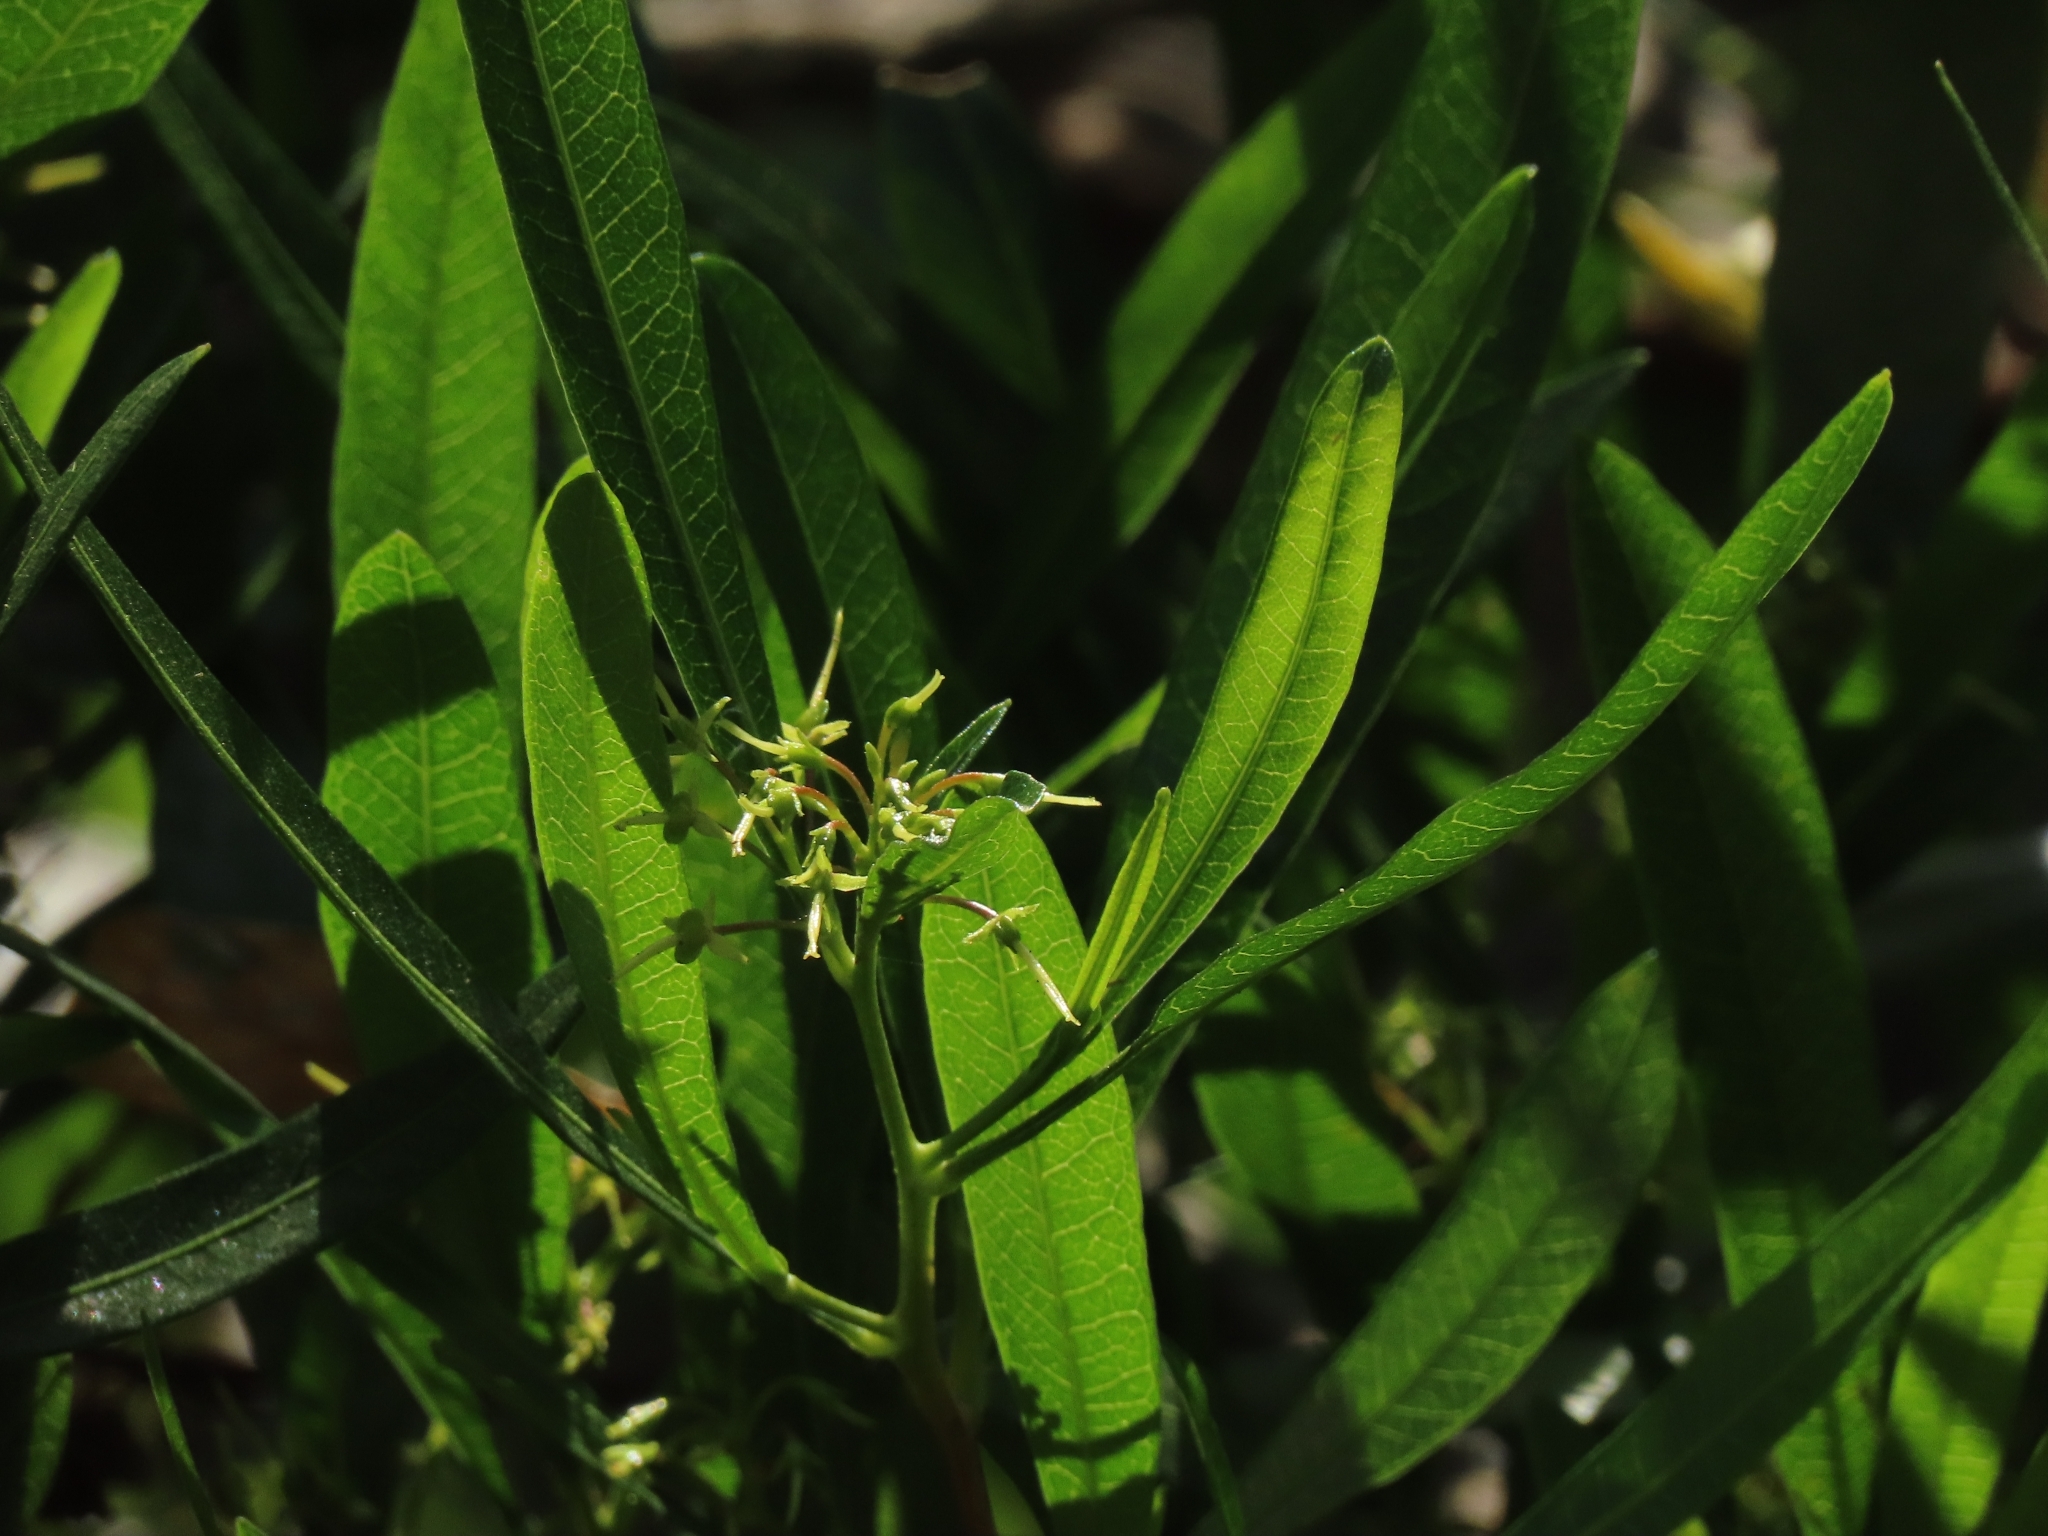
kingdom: Plantae
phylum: Tracheophyta
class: Magnoliopsida
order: Sapindales
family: Sapindaceae
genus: Dodonaea
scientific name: Dodonaea viscosa
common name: Hopbush
